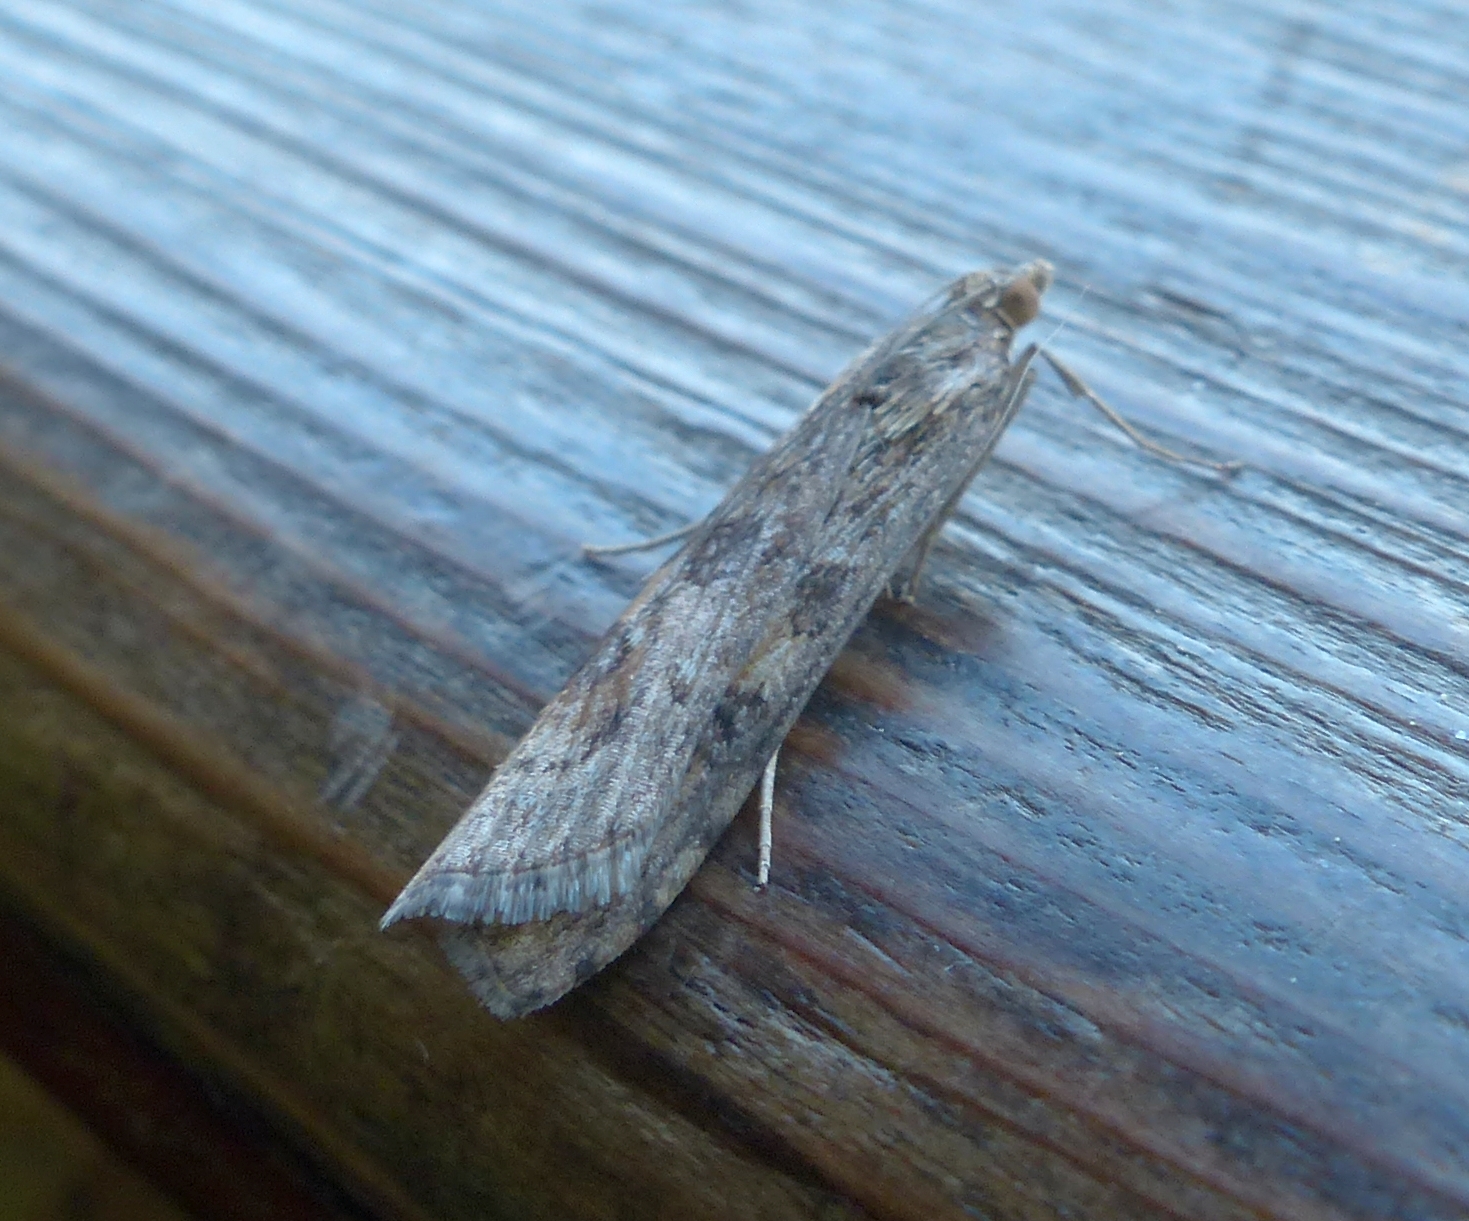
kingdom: Animalia
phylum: Arthropoda
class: Insecta
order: Lepidoptera
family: Crambidae
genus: Nomophila
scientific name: Nomophila noctuella
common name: Rush veneer
